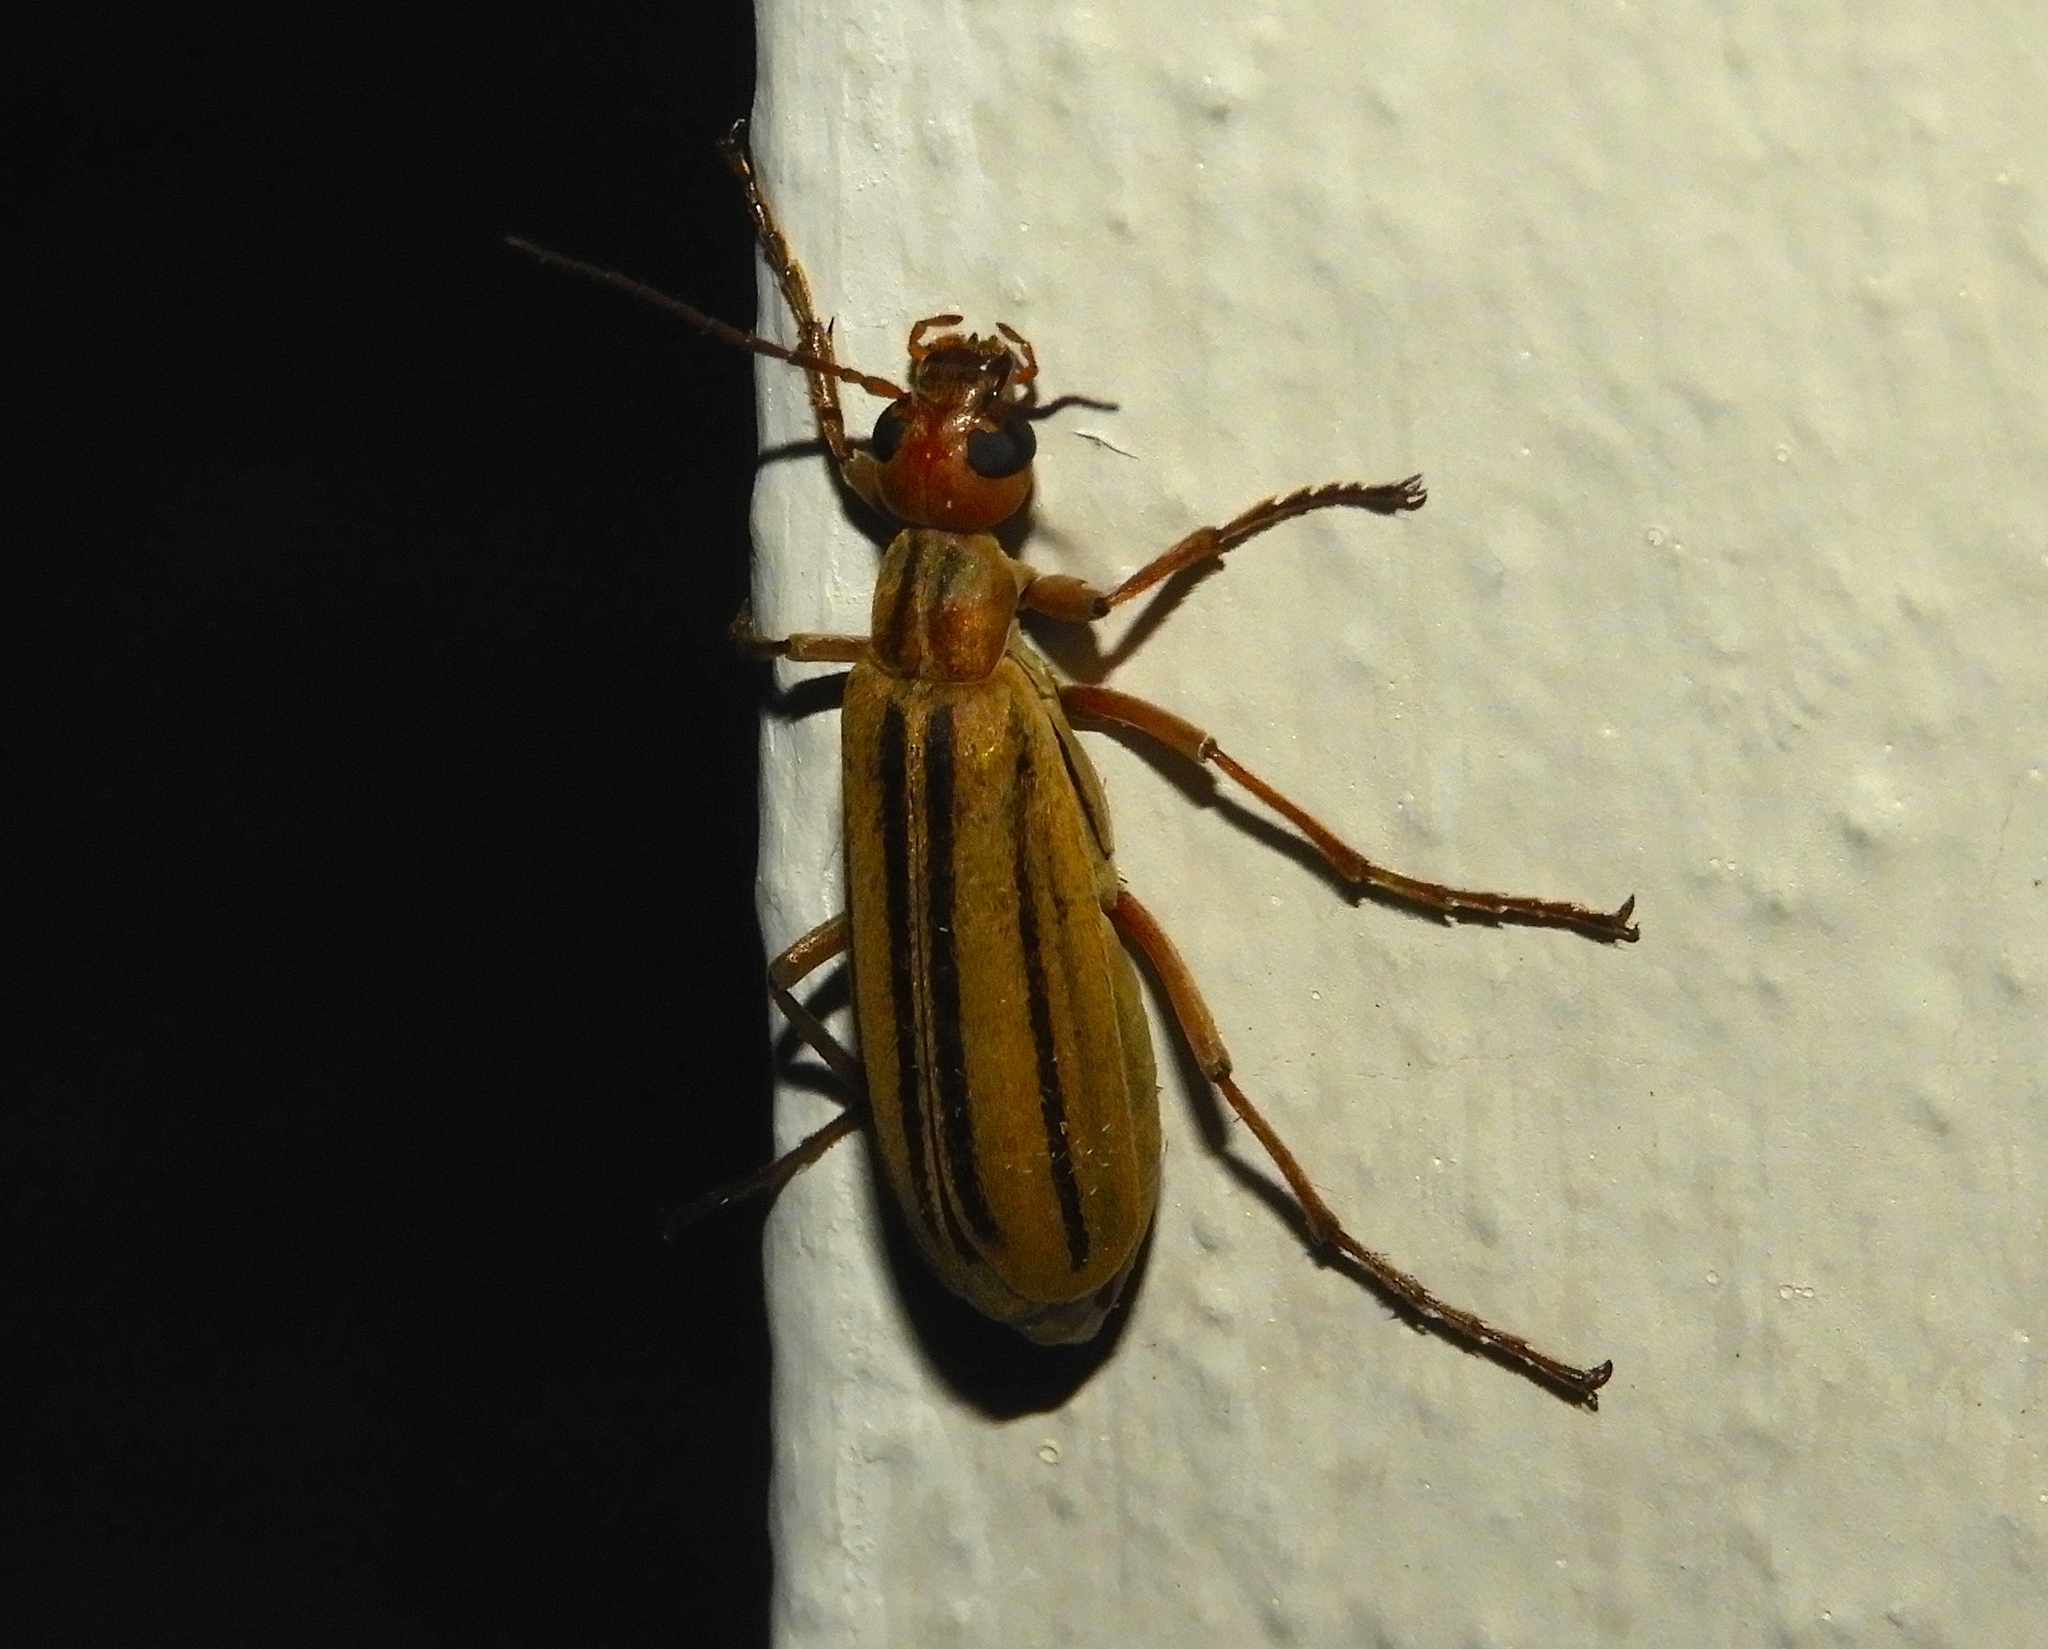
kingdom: Animalia
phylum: Arthropoda
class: Insecta
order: Coleoptera
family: Meloidae
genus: Epicauta
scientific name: Epicauta abadona
